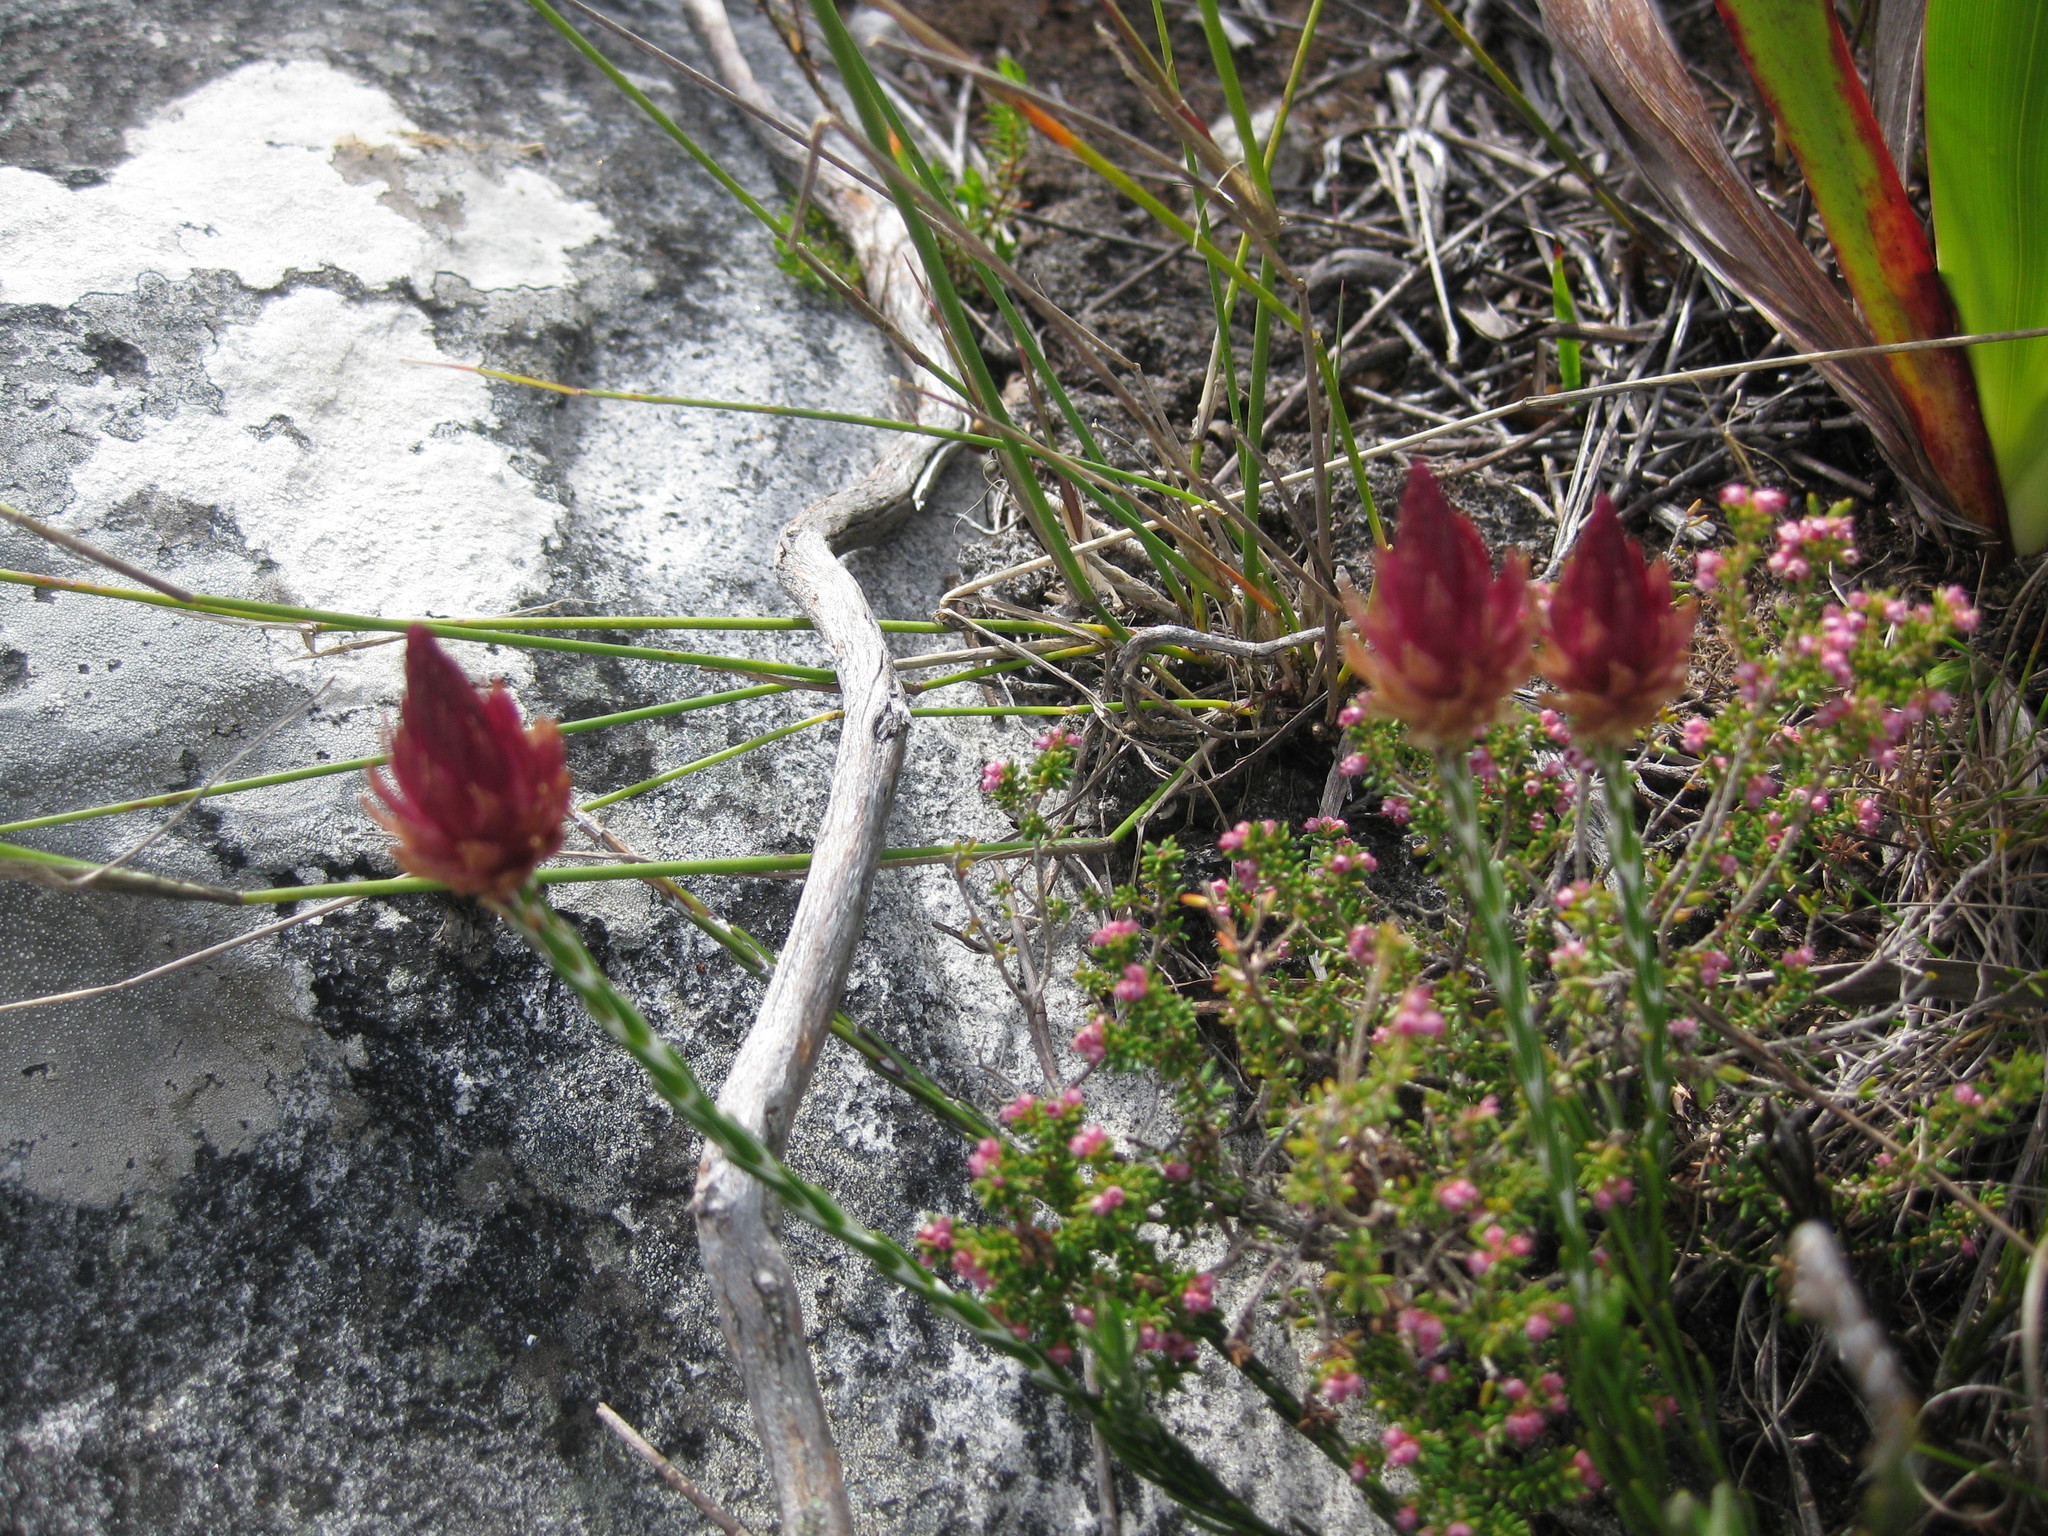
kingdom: Plantae
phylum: Tracheophyta
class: Magnoliopsida
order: Asterales
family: Asteraceae
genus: Edmondia
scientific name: Edmondia sesamoides
